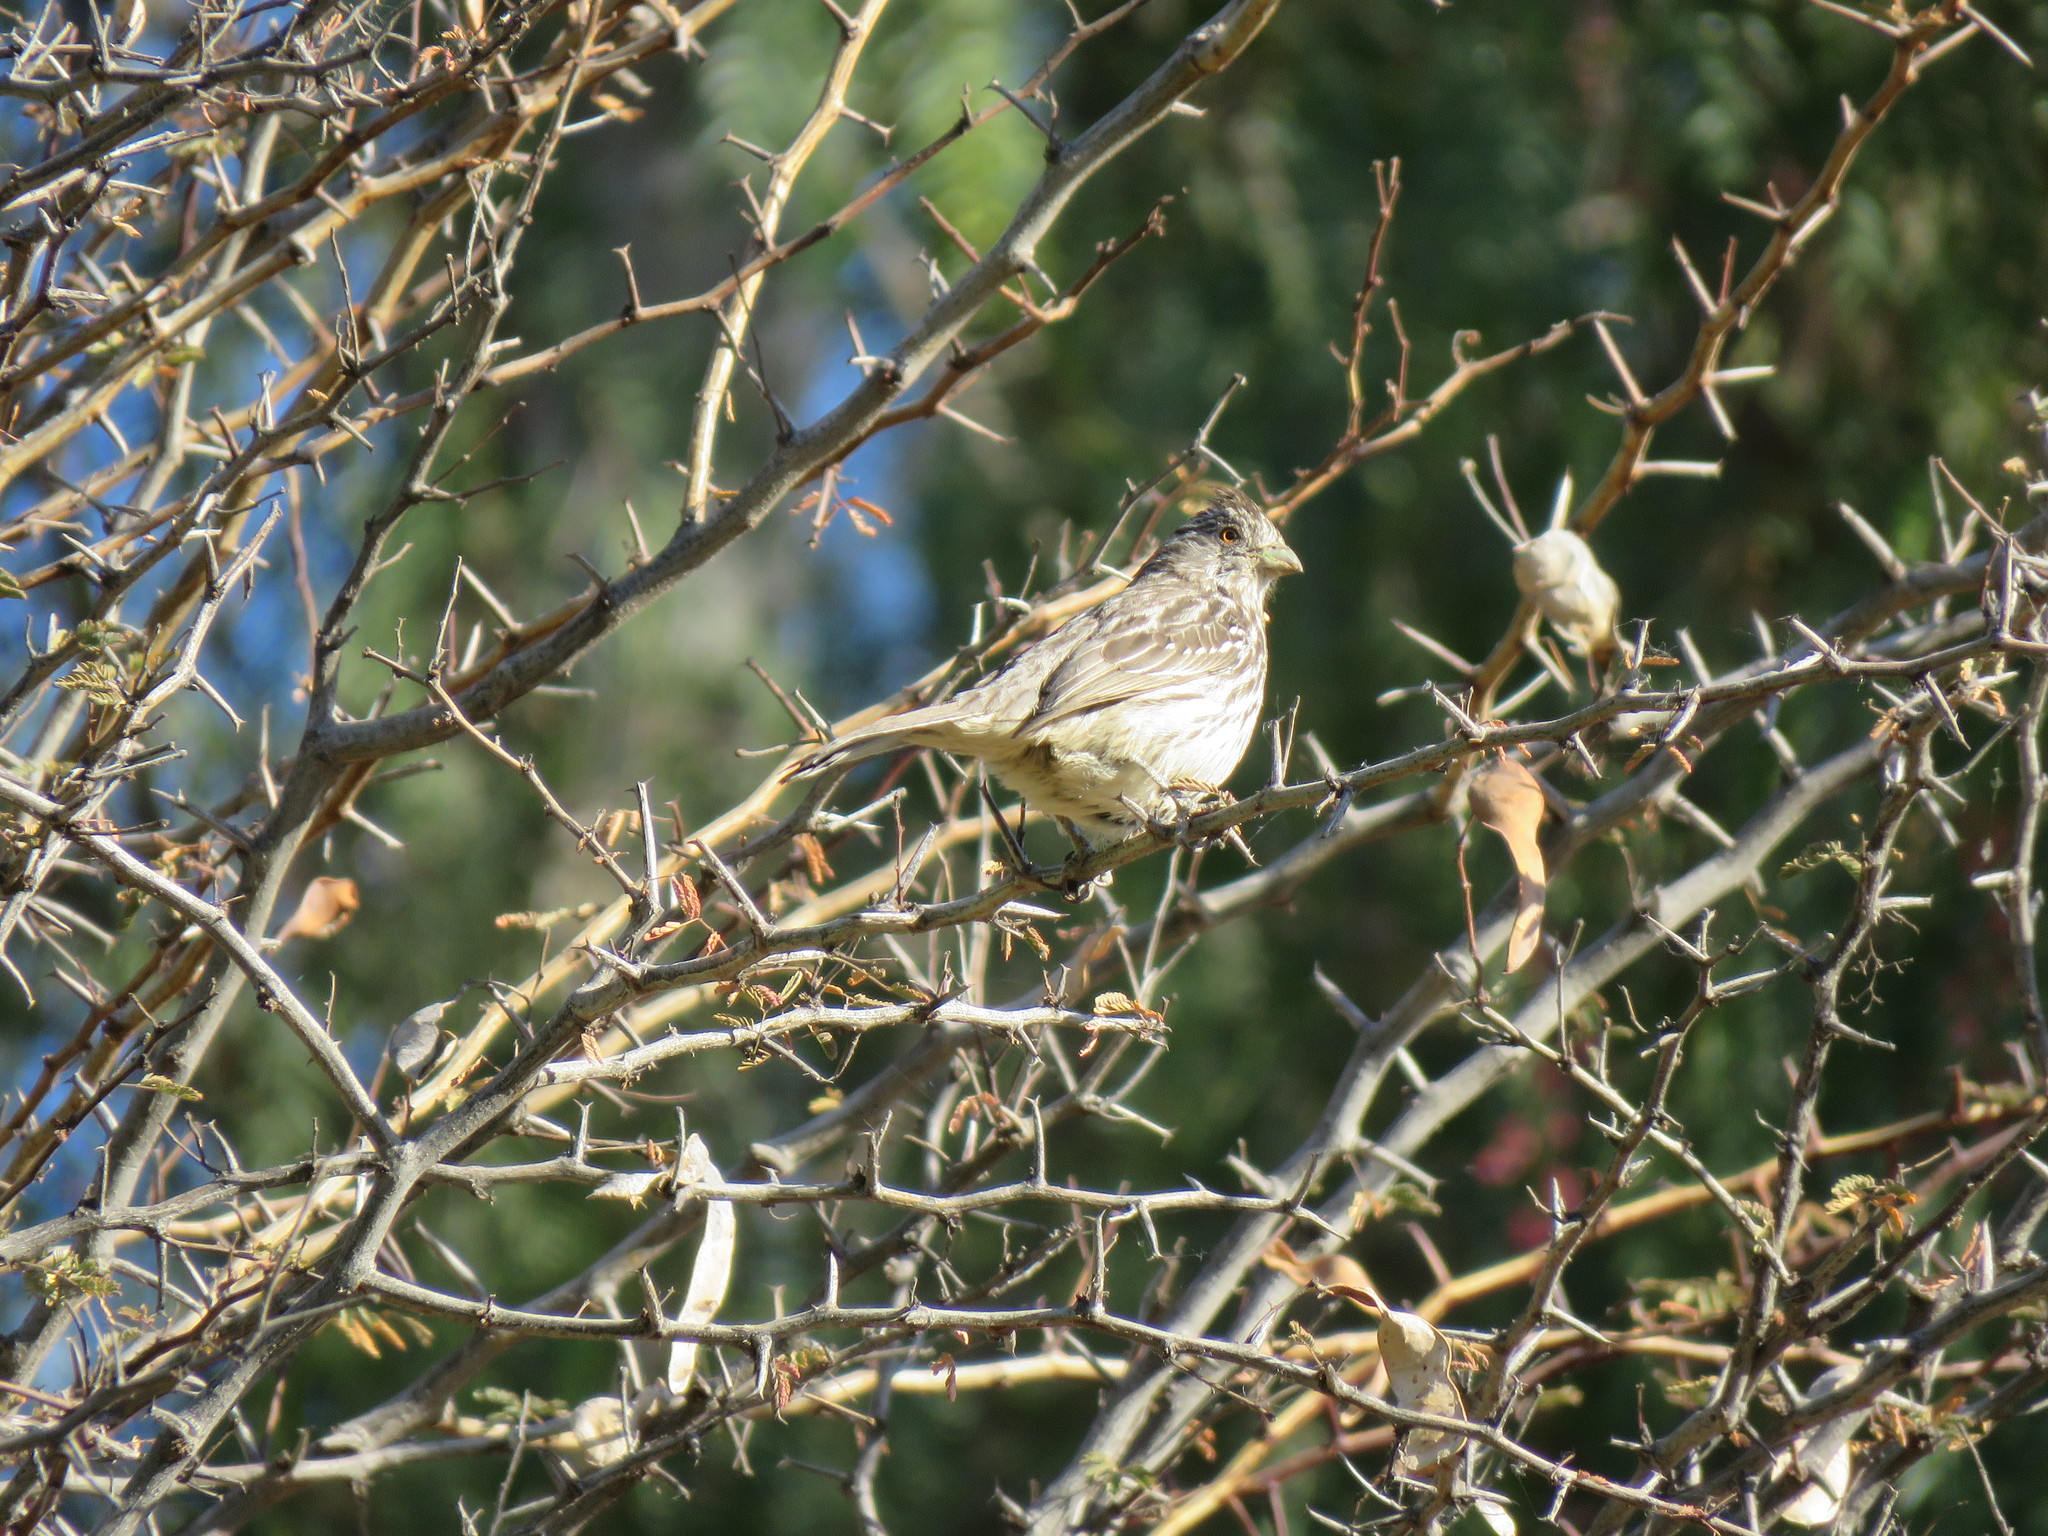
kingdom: Animalia
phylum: Chordata
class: Aves
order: Passeriformes
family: Cotingidae
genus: Phytotoma
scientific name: Phytotoma rutila
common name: White-tipped plantcutter
